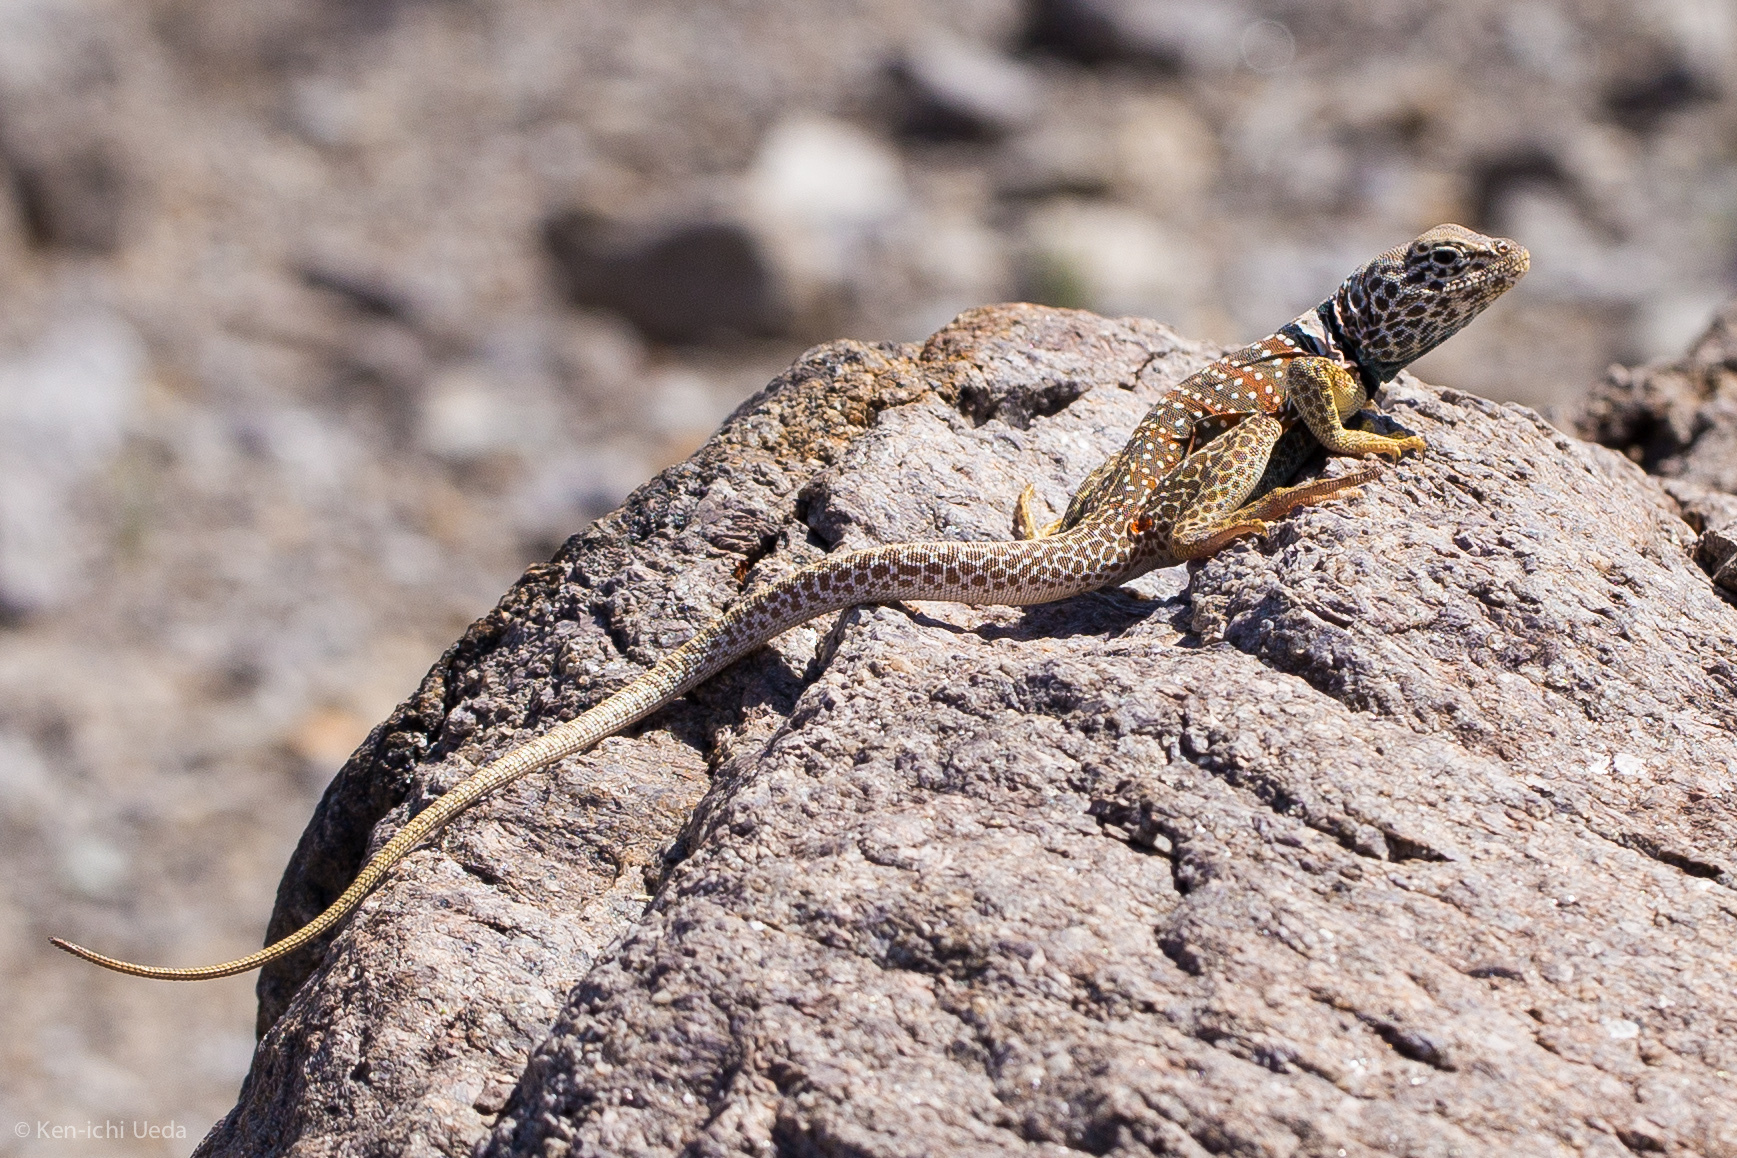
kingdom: Animalia
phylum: Chordata
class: Squamata
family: Crotaphytidae
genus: Crotaphytus
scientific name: Crotaphytus bicinctores
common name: Mojave black-collared lizard
